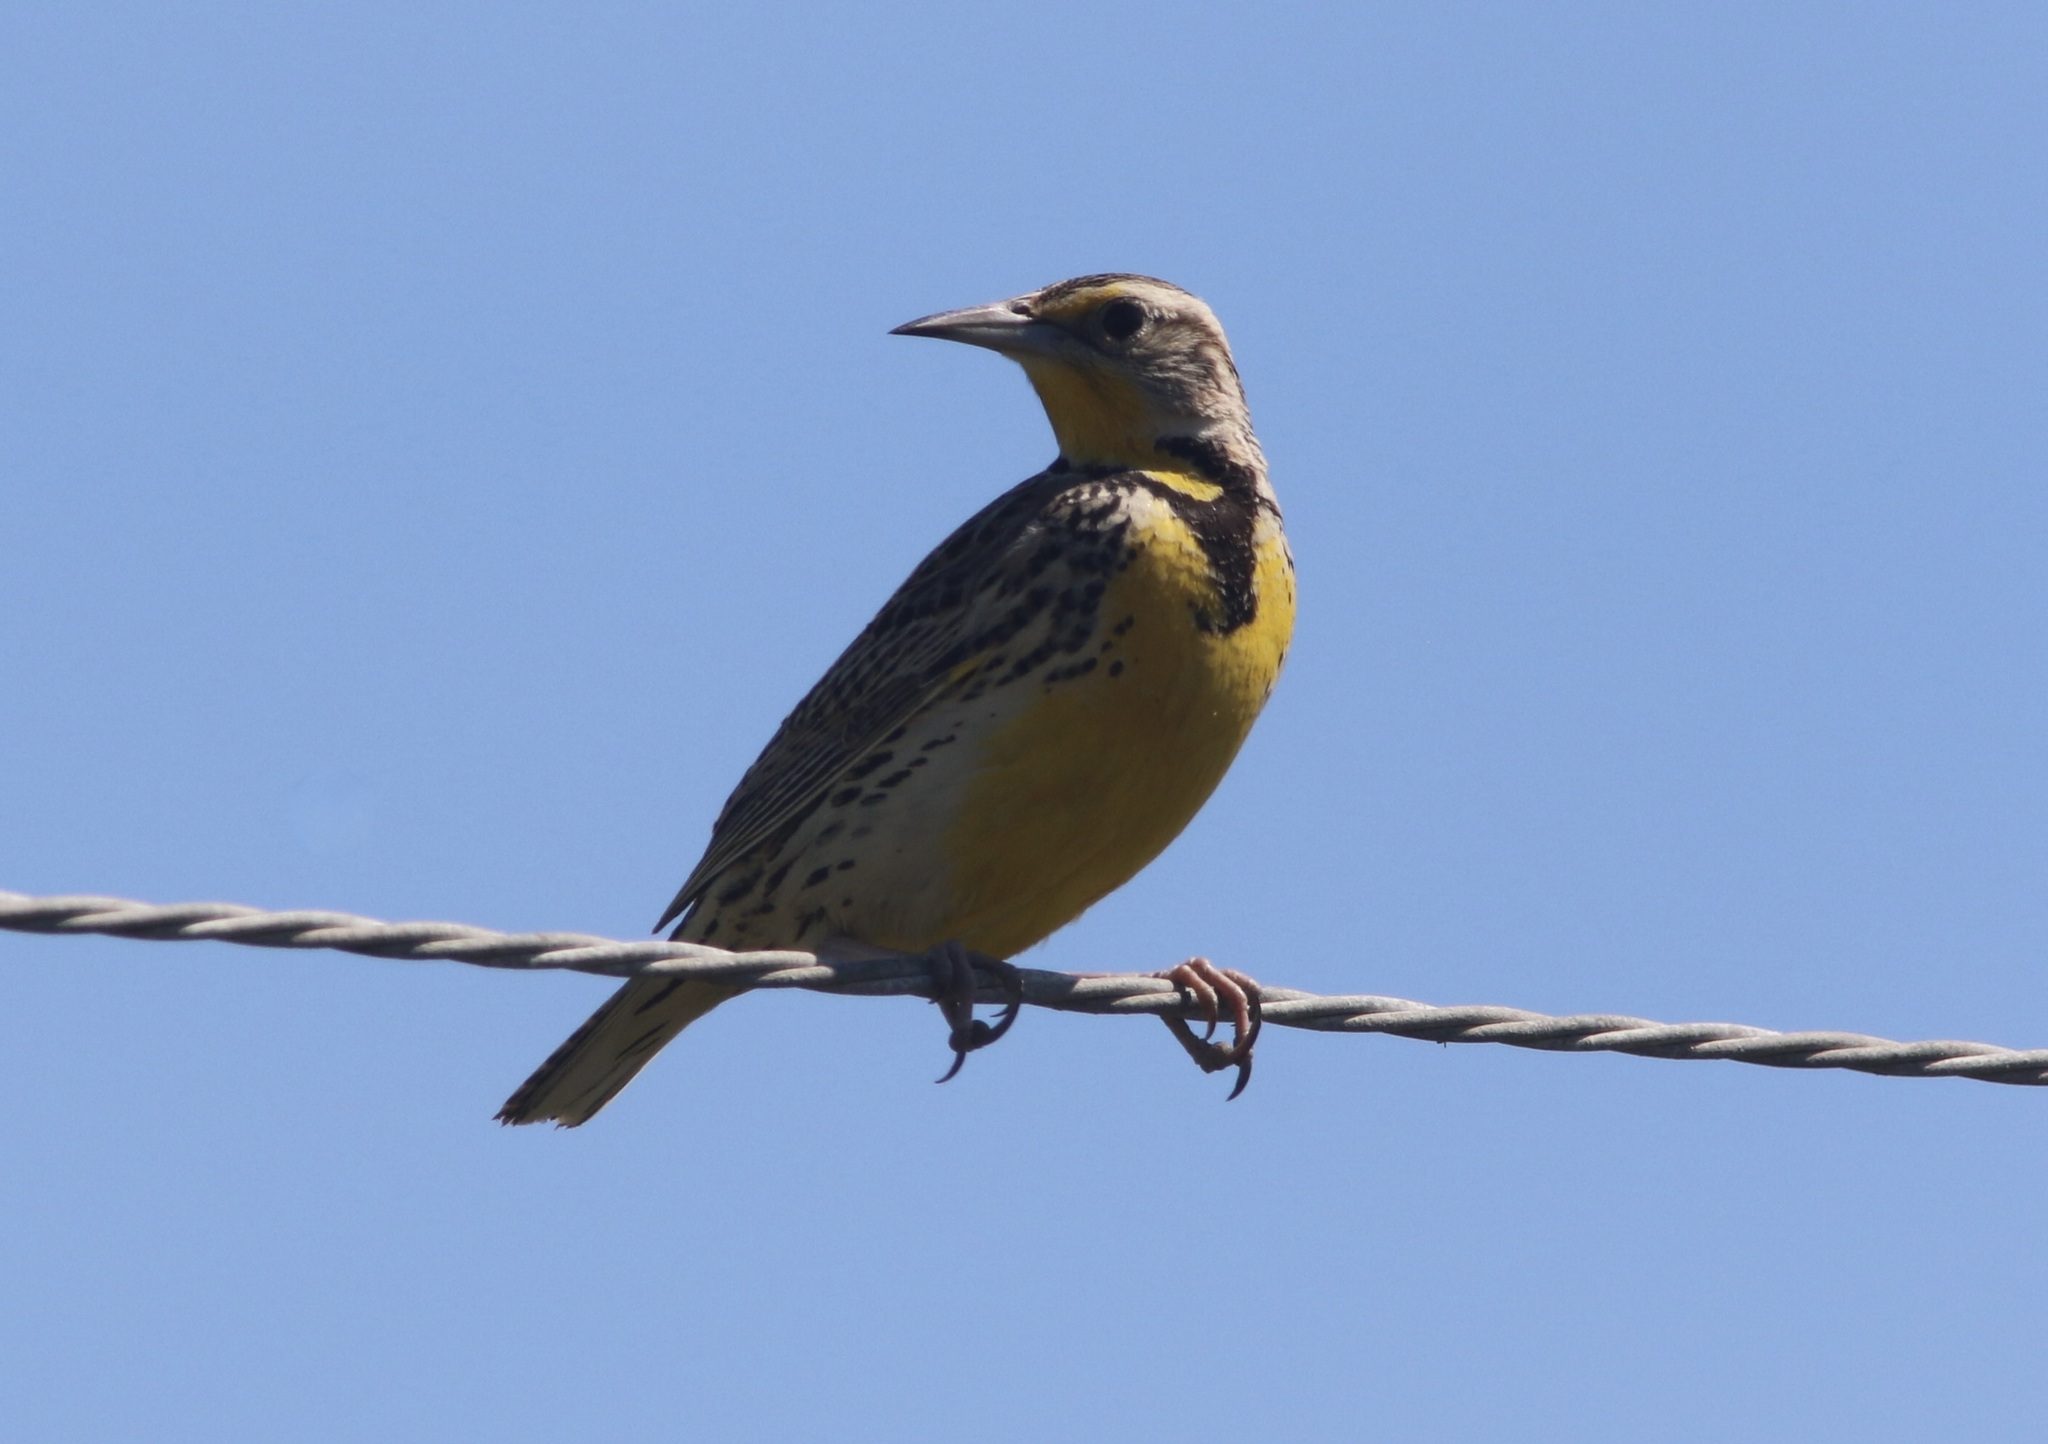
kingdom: Animalia
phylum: Chordata
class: Aves
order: Passeriformes
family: Icteridae
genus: Sturnella
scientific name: Sturnella neglecta
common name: Western meadowlark
